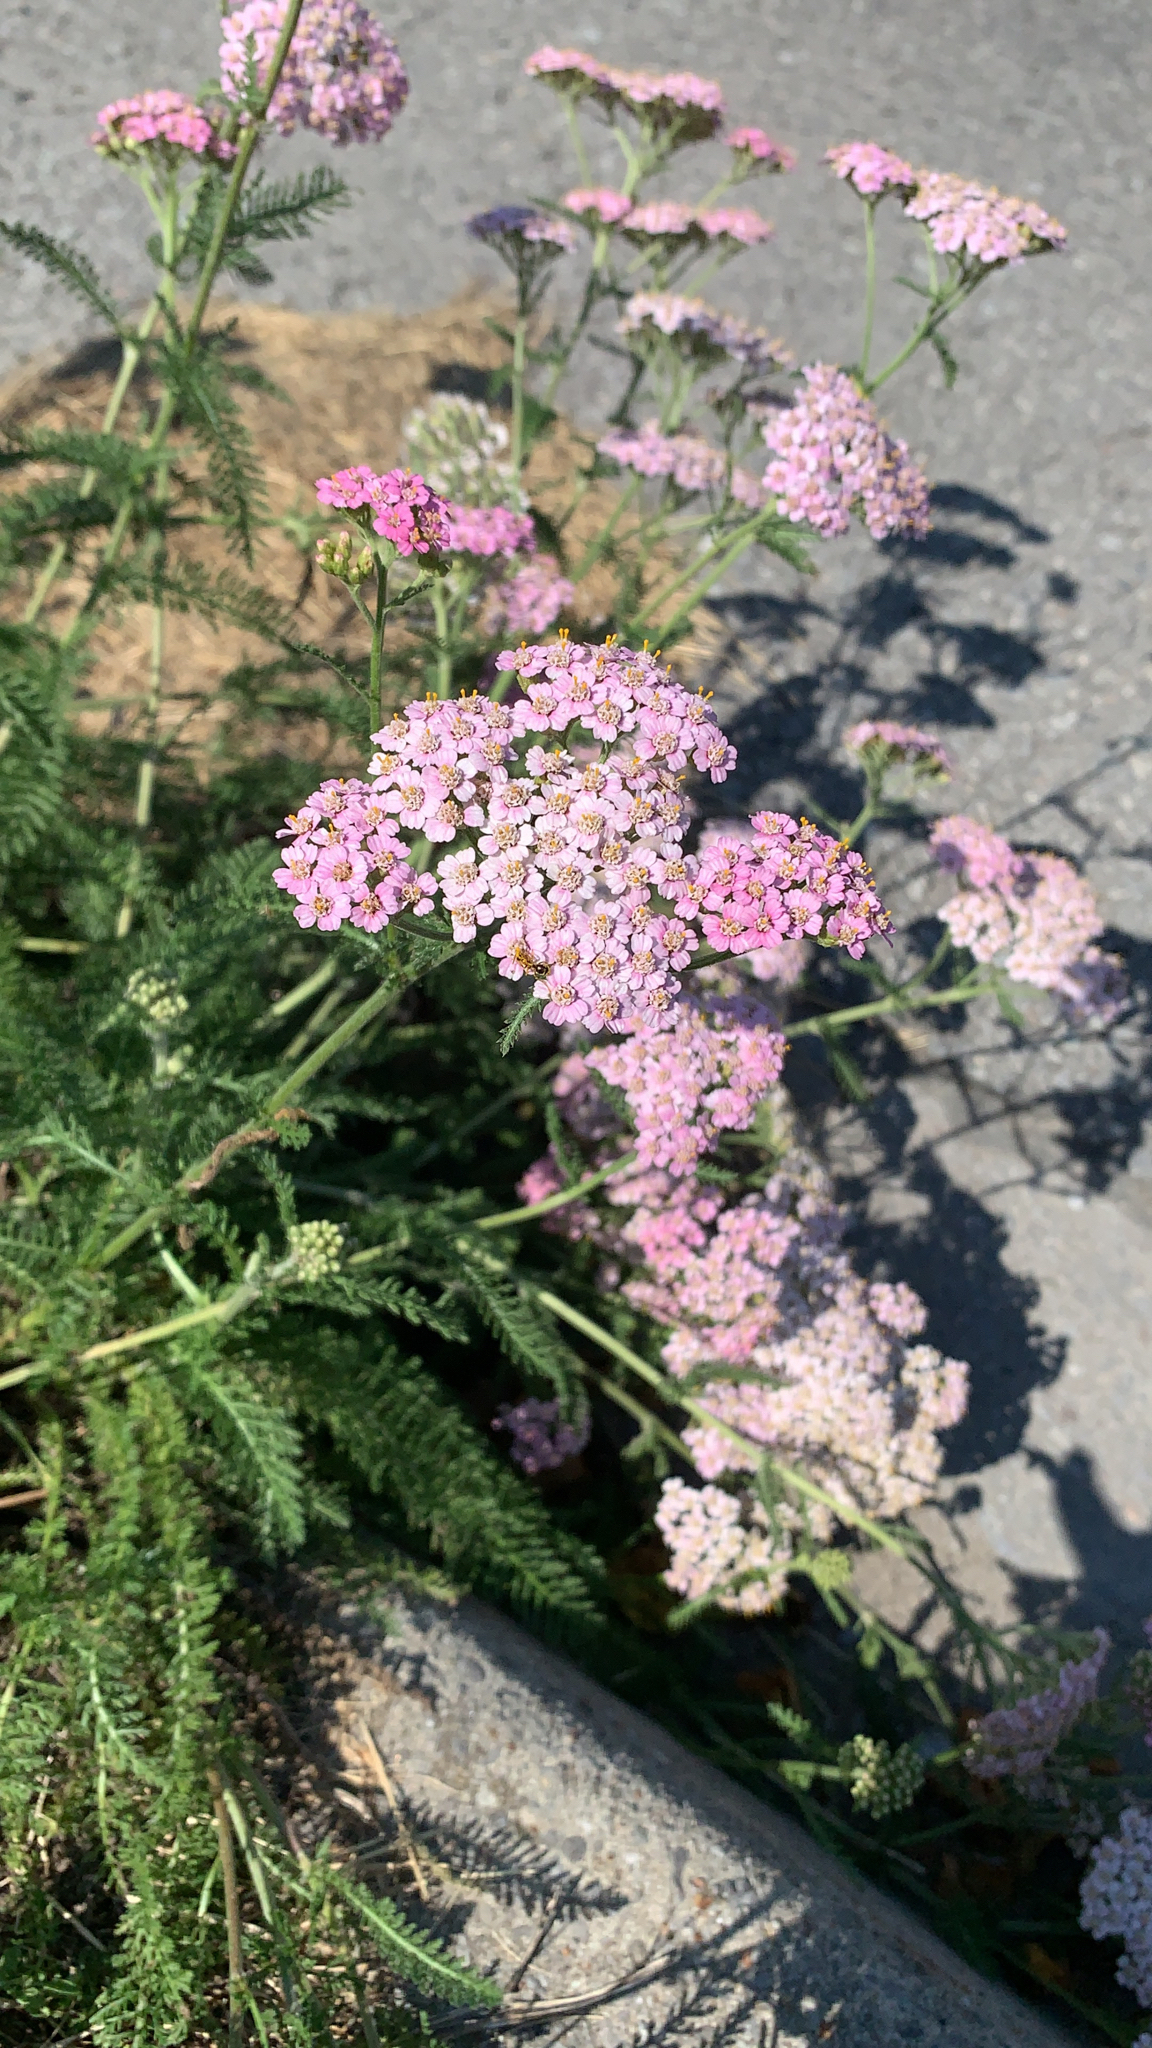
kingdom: Plantae
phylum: Tracheophyta
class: Magnoliopsida
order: Asterales
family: Asteraceae
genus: Achillea
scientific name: Achillea millefolium
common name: Yarrow
